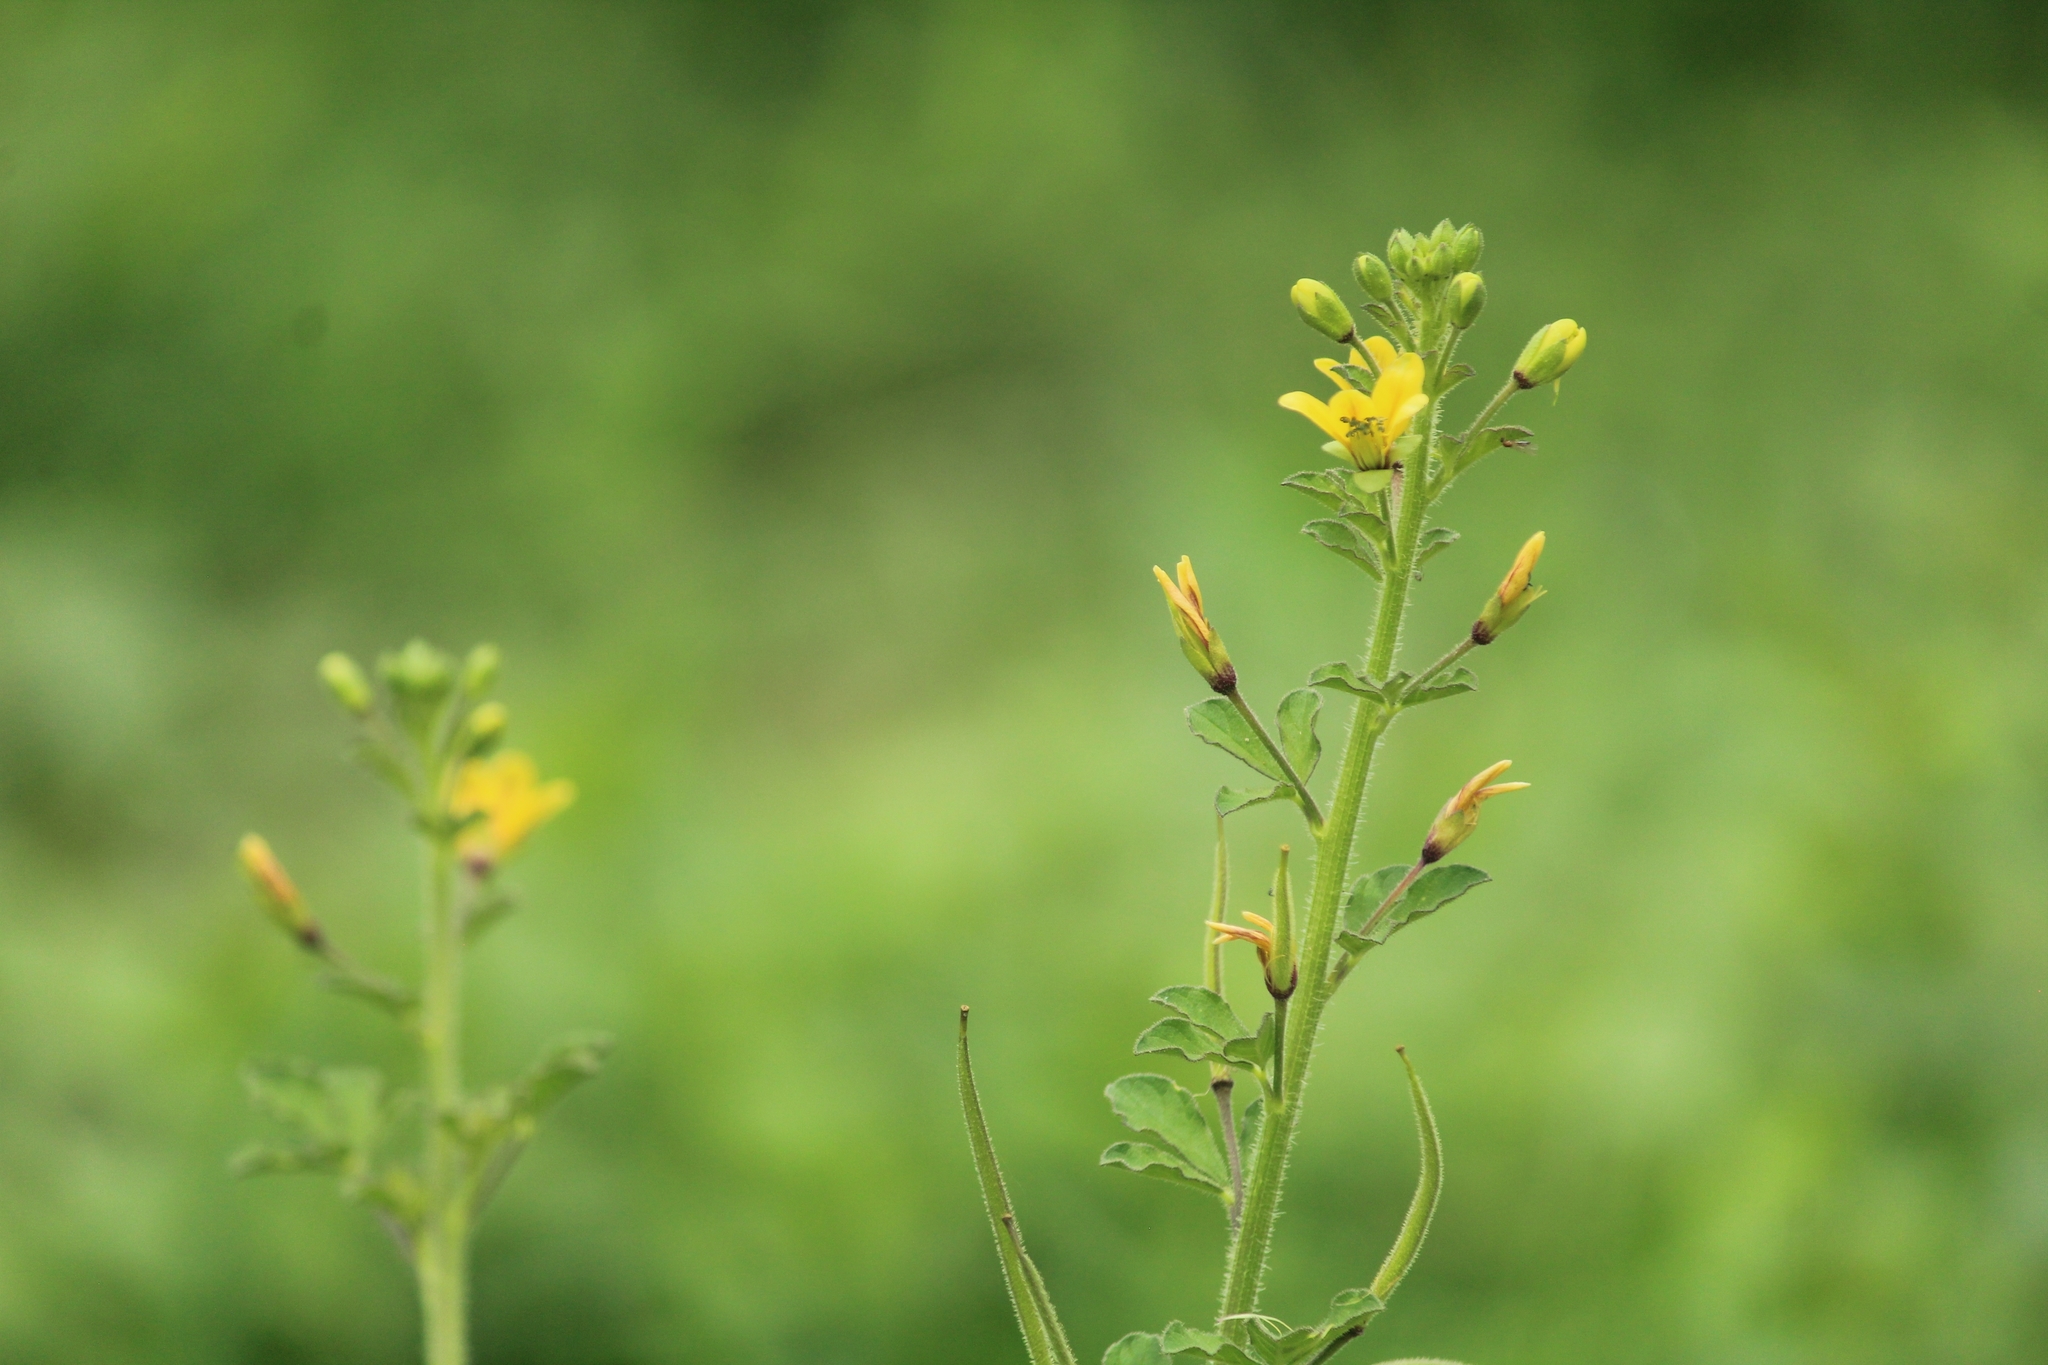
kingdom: Plantae
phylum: Tracheophyta
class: Magnoliopsida
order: Brassicales
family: Cleomaceae
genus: Arivela
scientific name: Arivela viscosa
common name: Asian spiderflower
